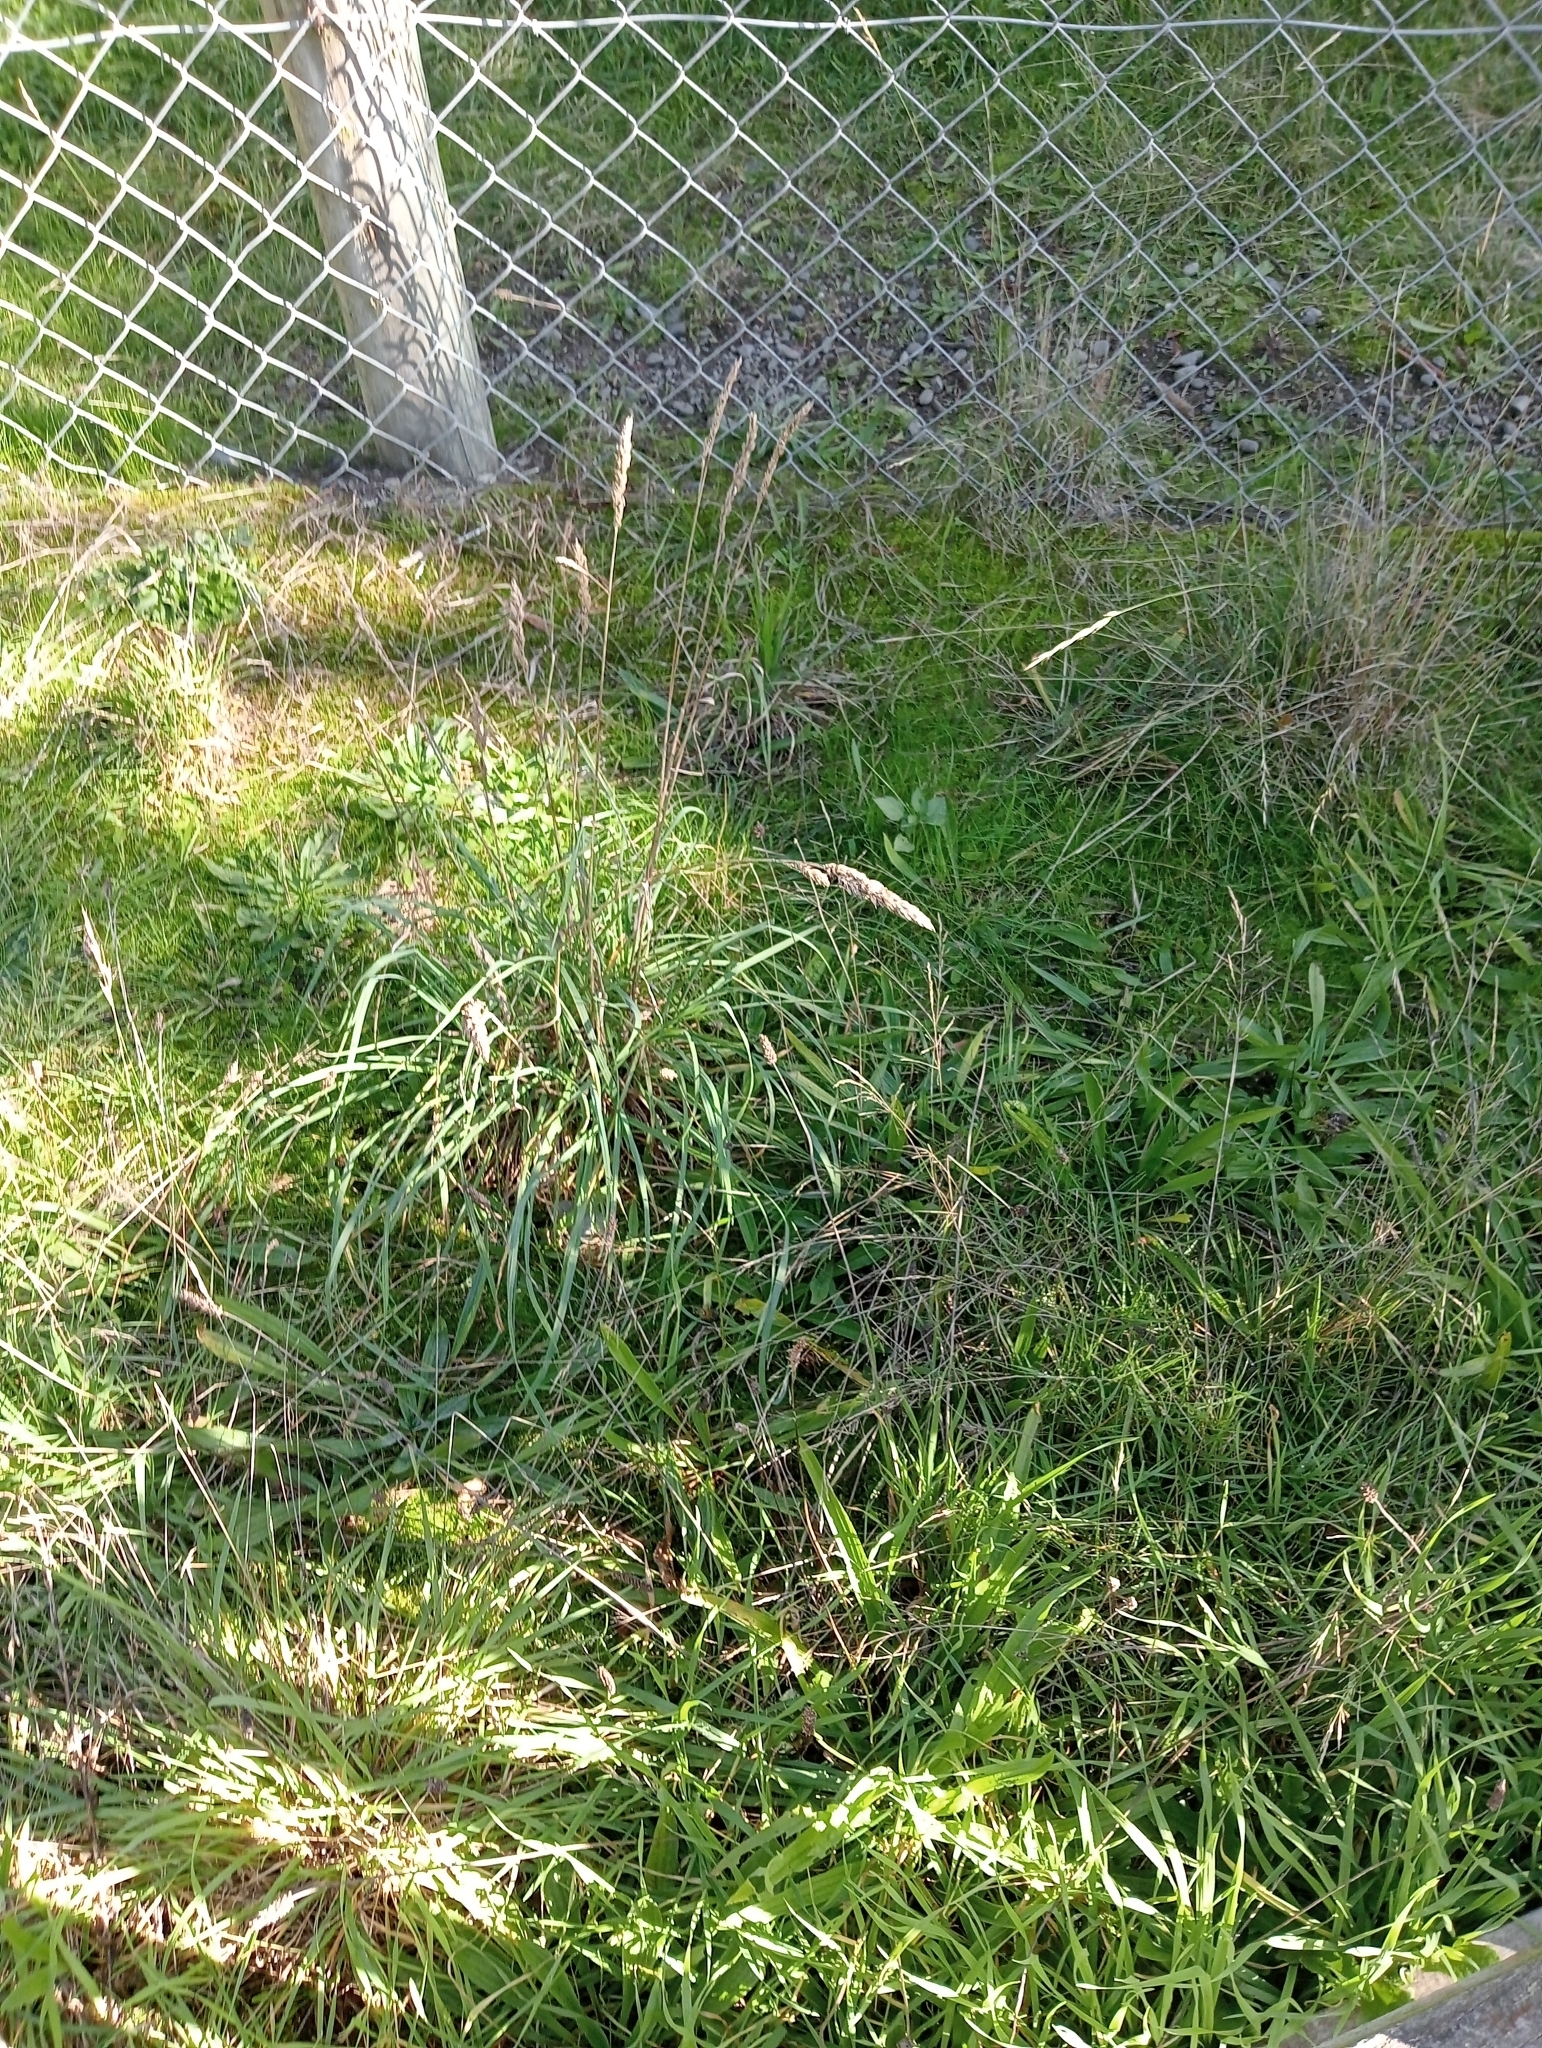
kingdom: Plantae
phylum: Tracheophyta
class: Liliopsida
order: Poales
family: Poaceae
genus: Dactylis
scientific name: Dactylis glomerata
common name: Orchardgrass
